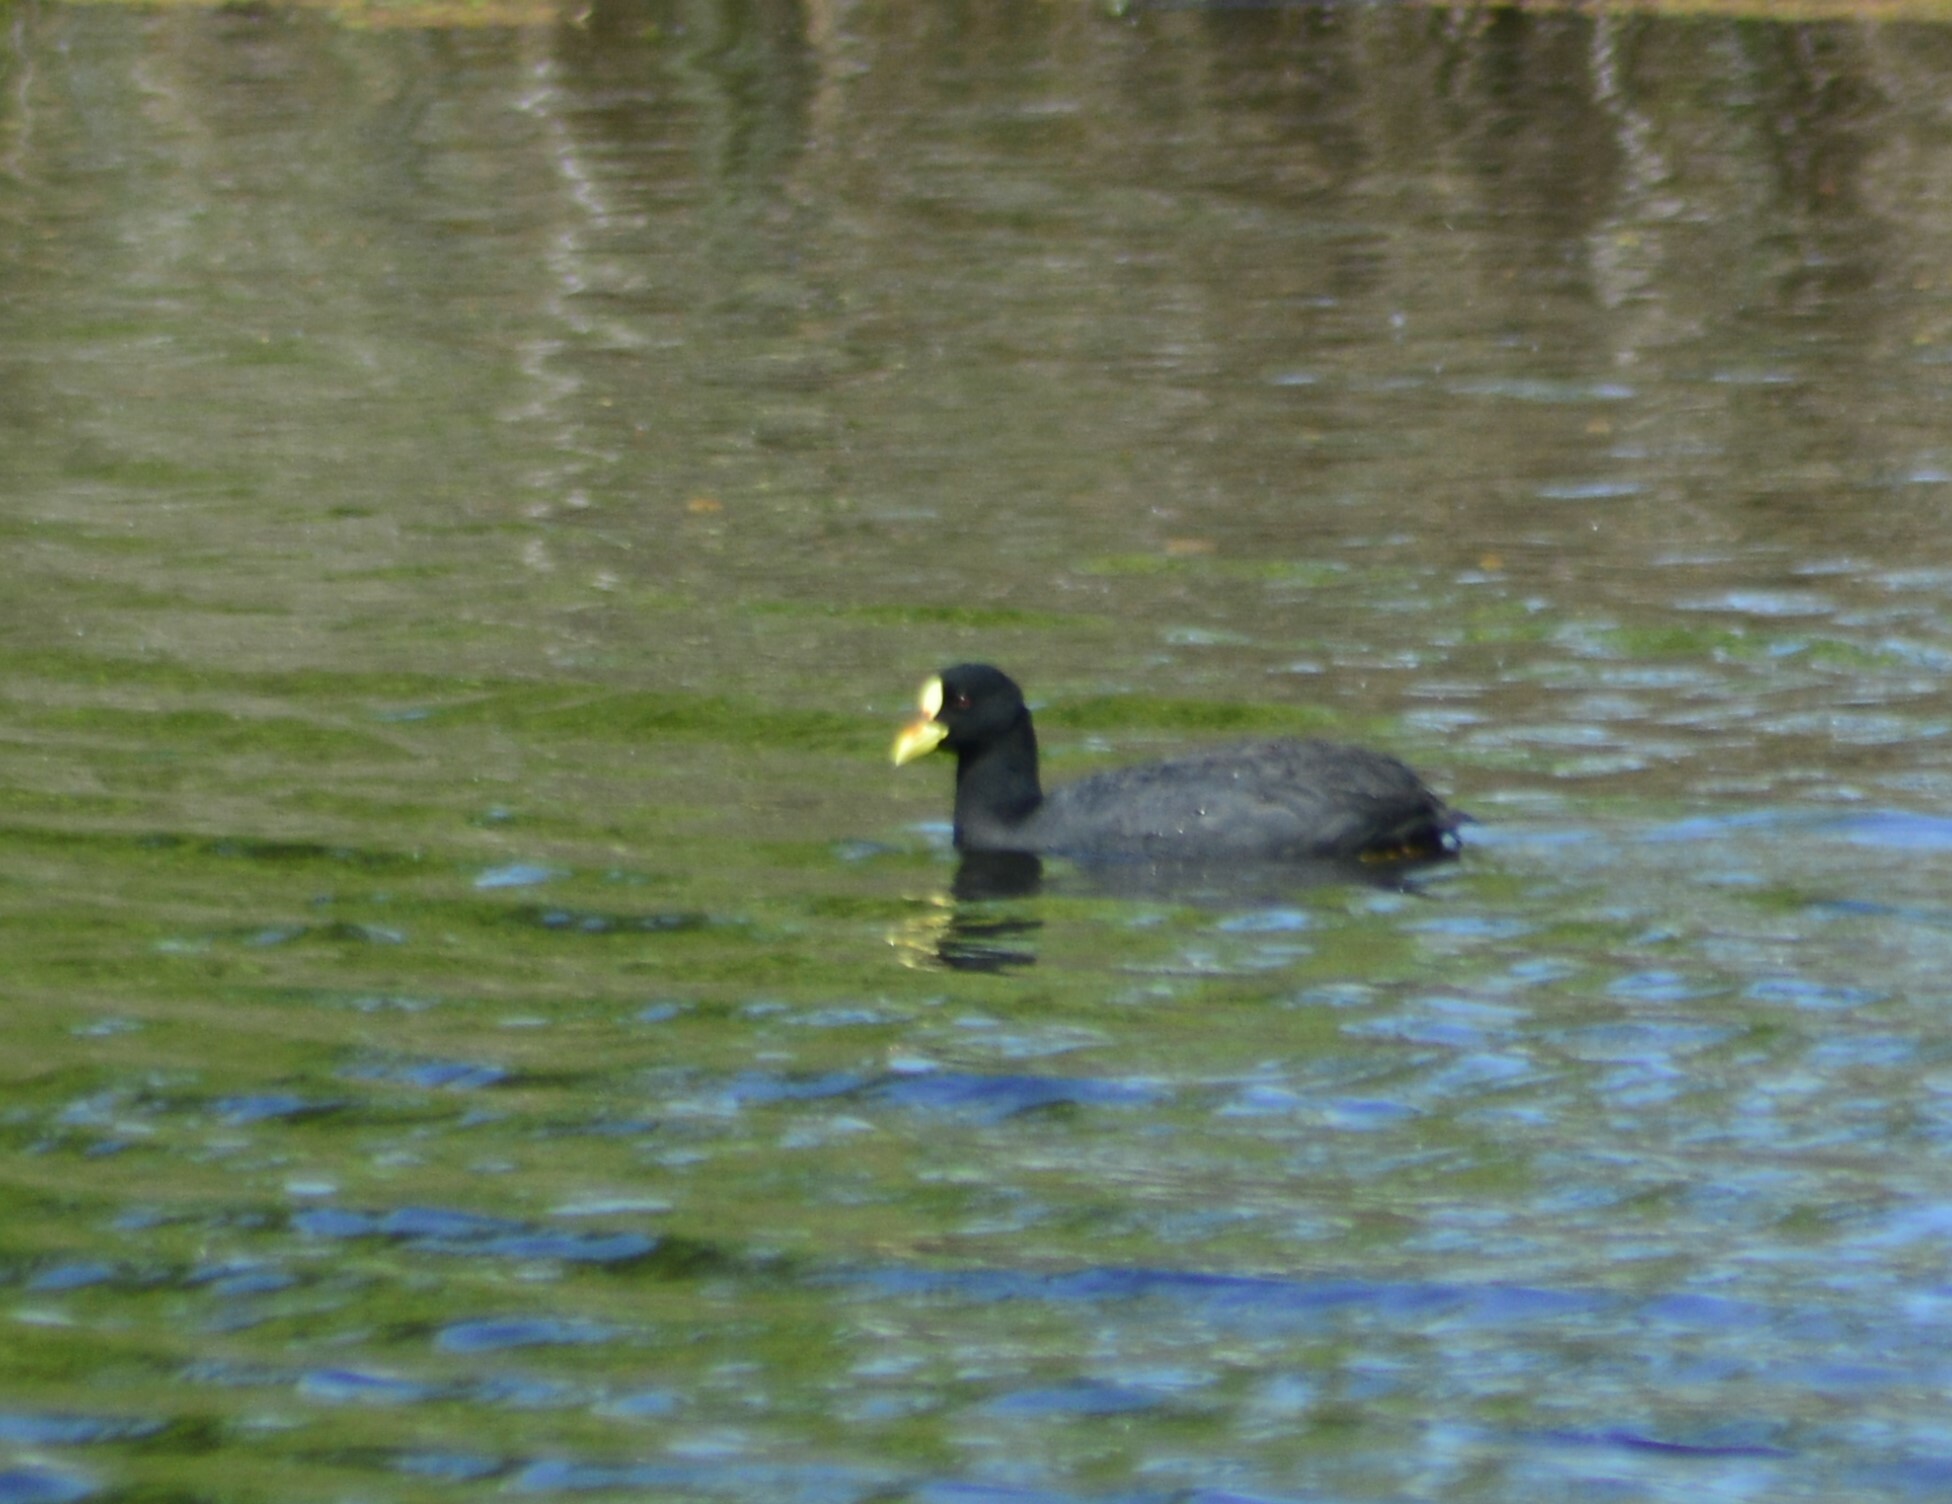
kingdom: Animalia
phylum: Chordata
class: Aves
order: Gruiformes
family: Rallidae
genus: Fulica
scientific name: Fulica armillata
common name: Red-gartered coot
